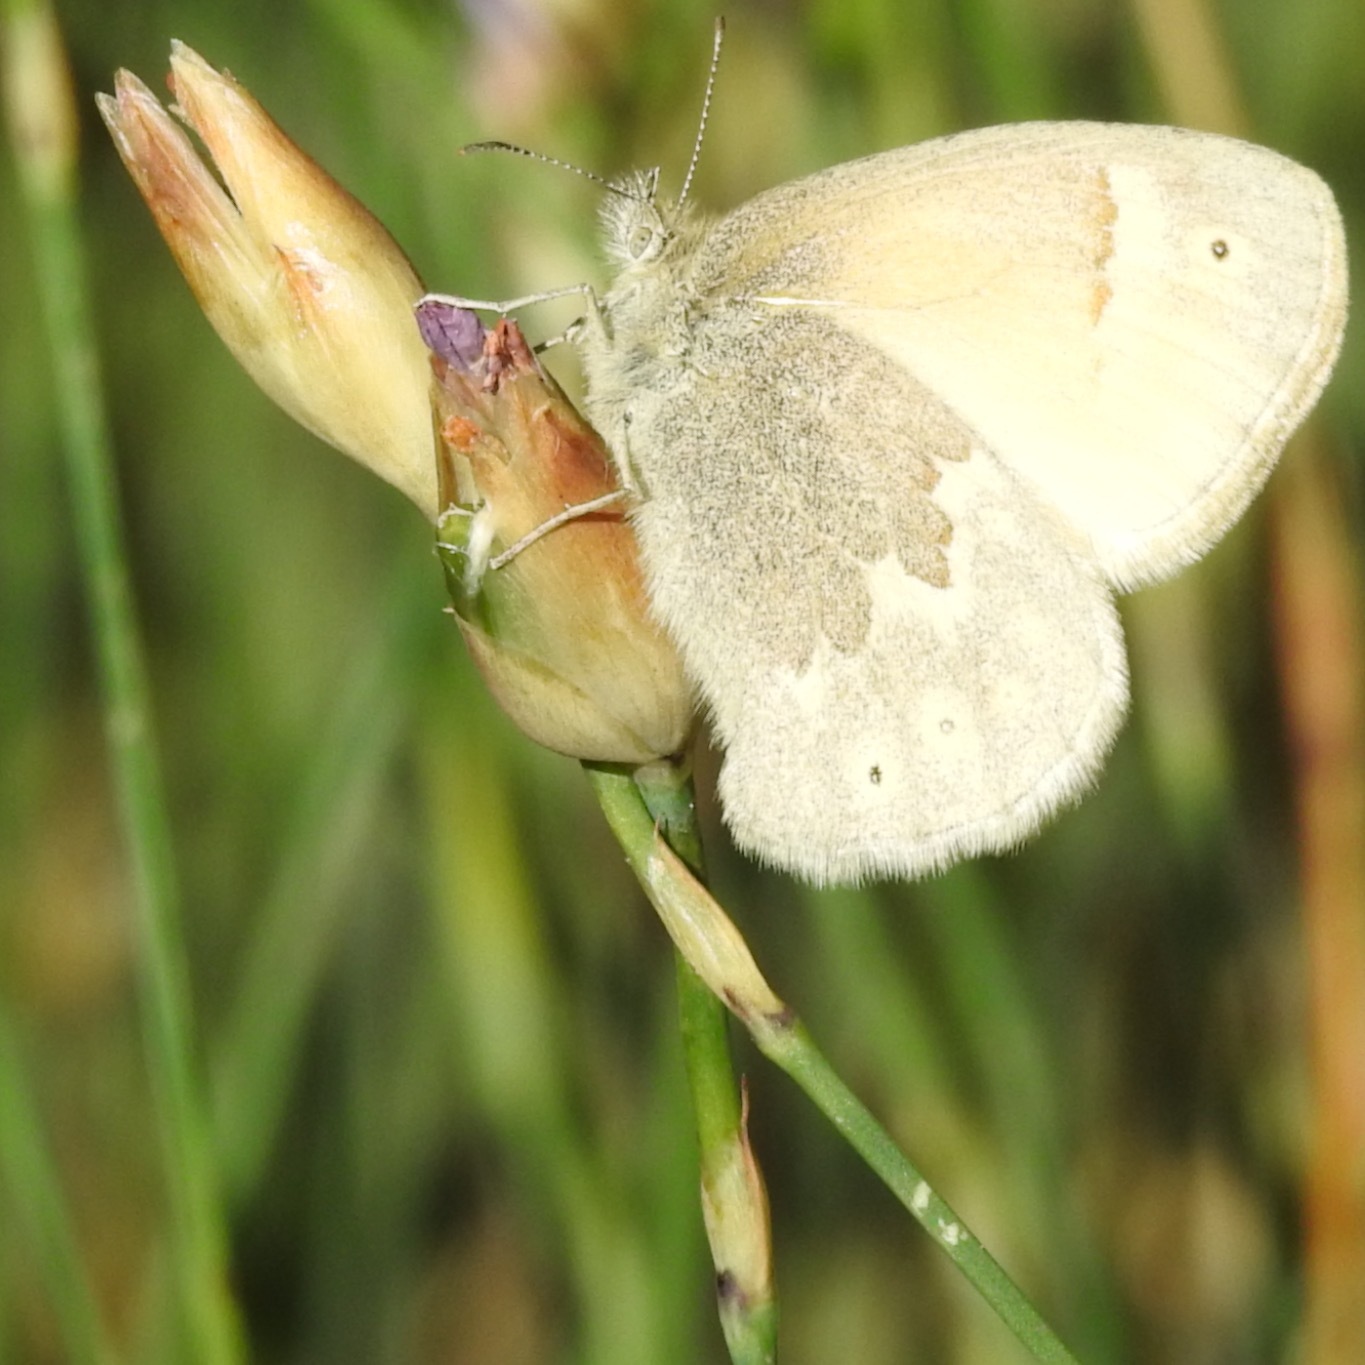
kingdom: Animalia
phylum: Arthropoda
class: Insecta
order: Lepidoptera
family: Nymphalidae
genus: Coenonympha
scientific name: Coenonympha california
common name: Common ringlet
